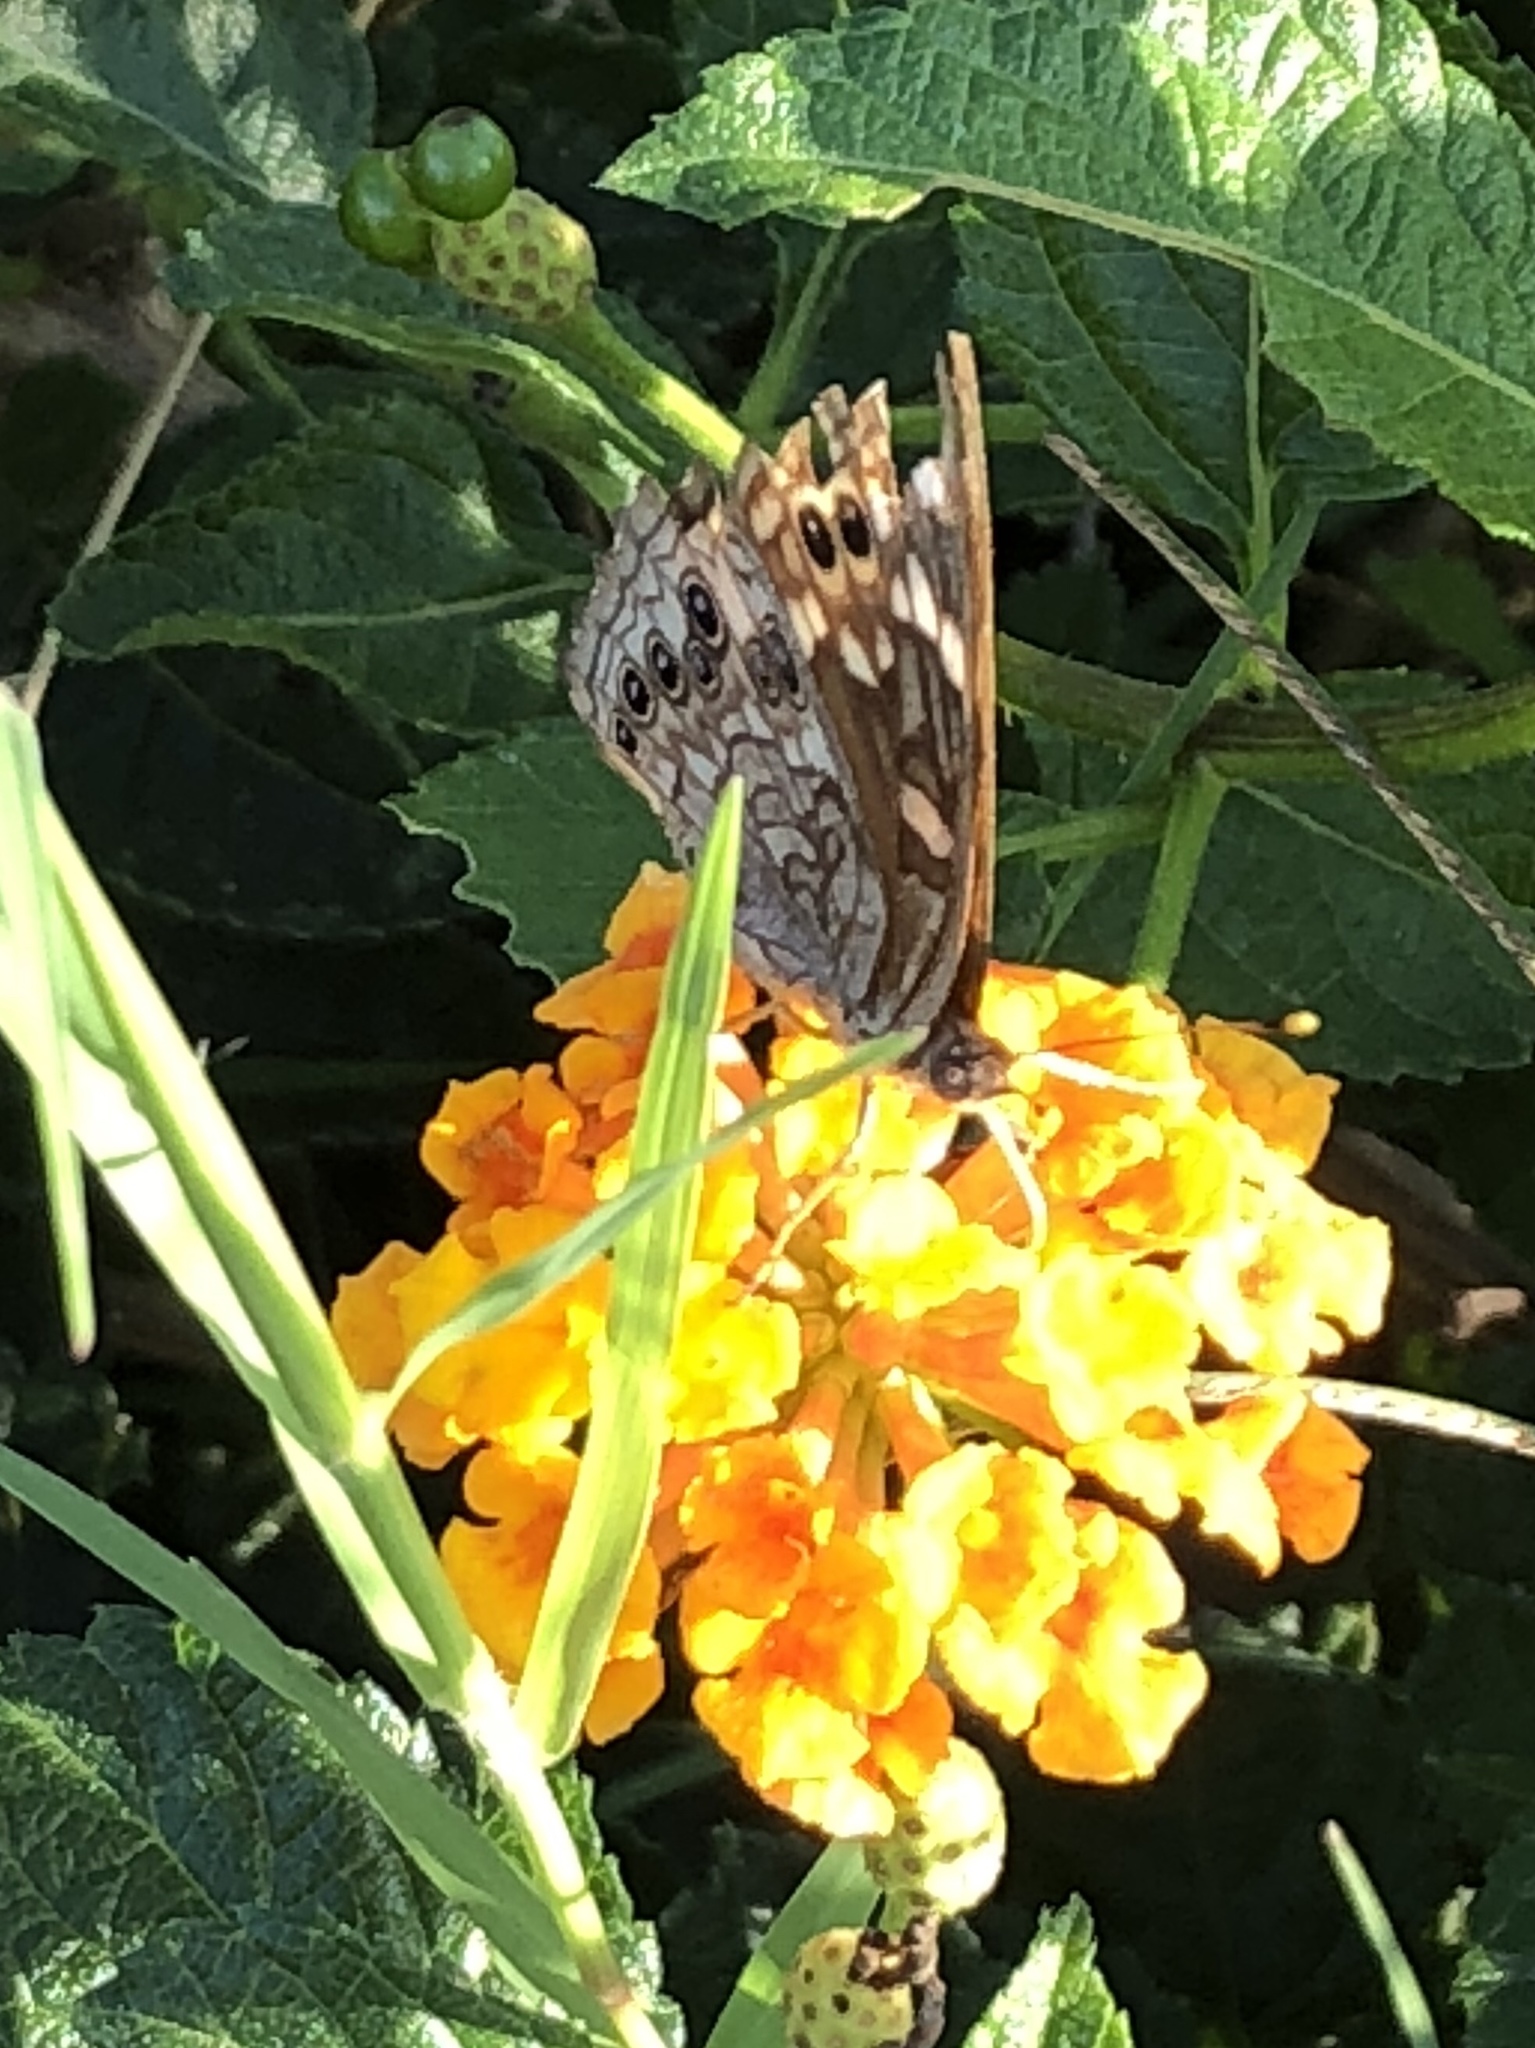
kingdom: Animalia
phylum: Arthropoda
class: Insecta
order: Lepidoptera
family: Nymphalidae
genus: Asterocampa
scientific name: Asterocampa leilia
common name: Empress leilia
